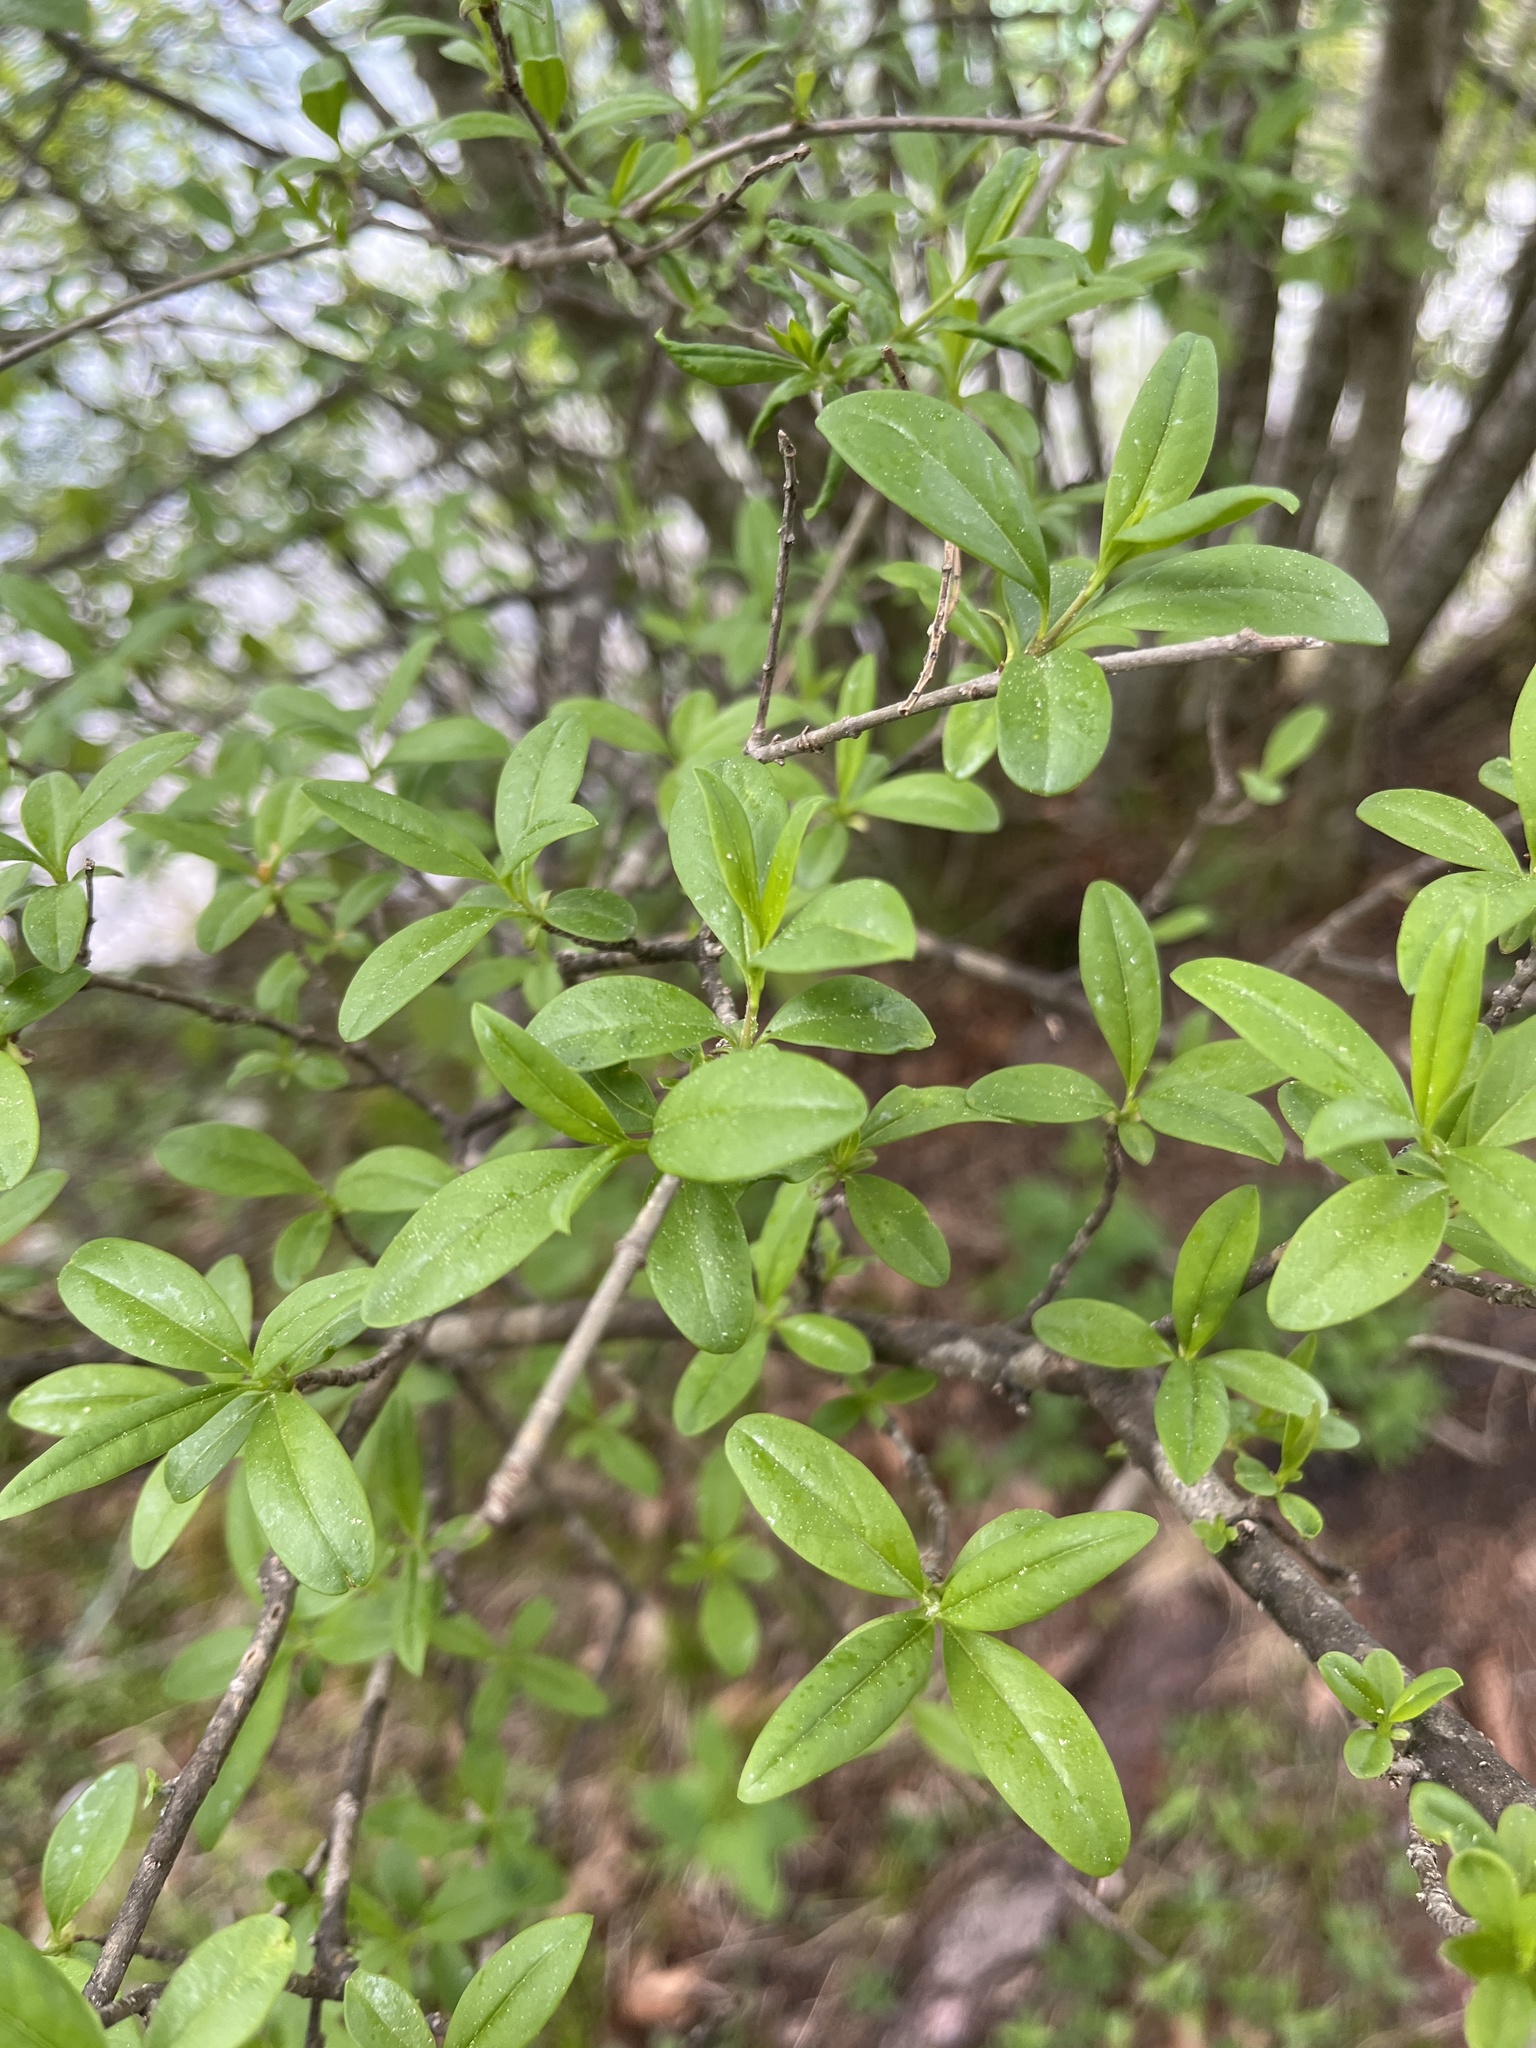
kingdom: Plantae
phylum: Tracheophyta
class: Magnoliopsida
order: Lamiales
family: Oleaceae
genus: Ligustrum
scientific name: Ligustrum vulgare
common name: Wild privet
